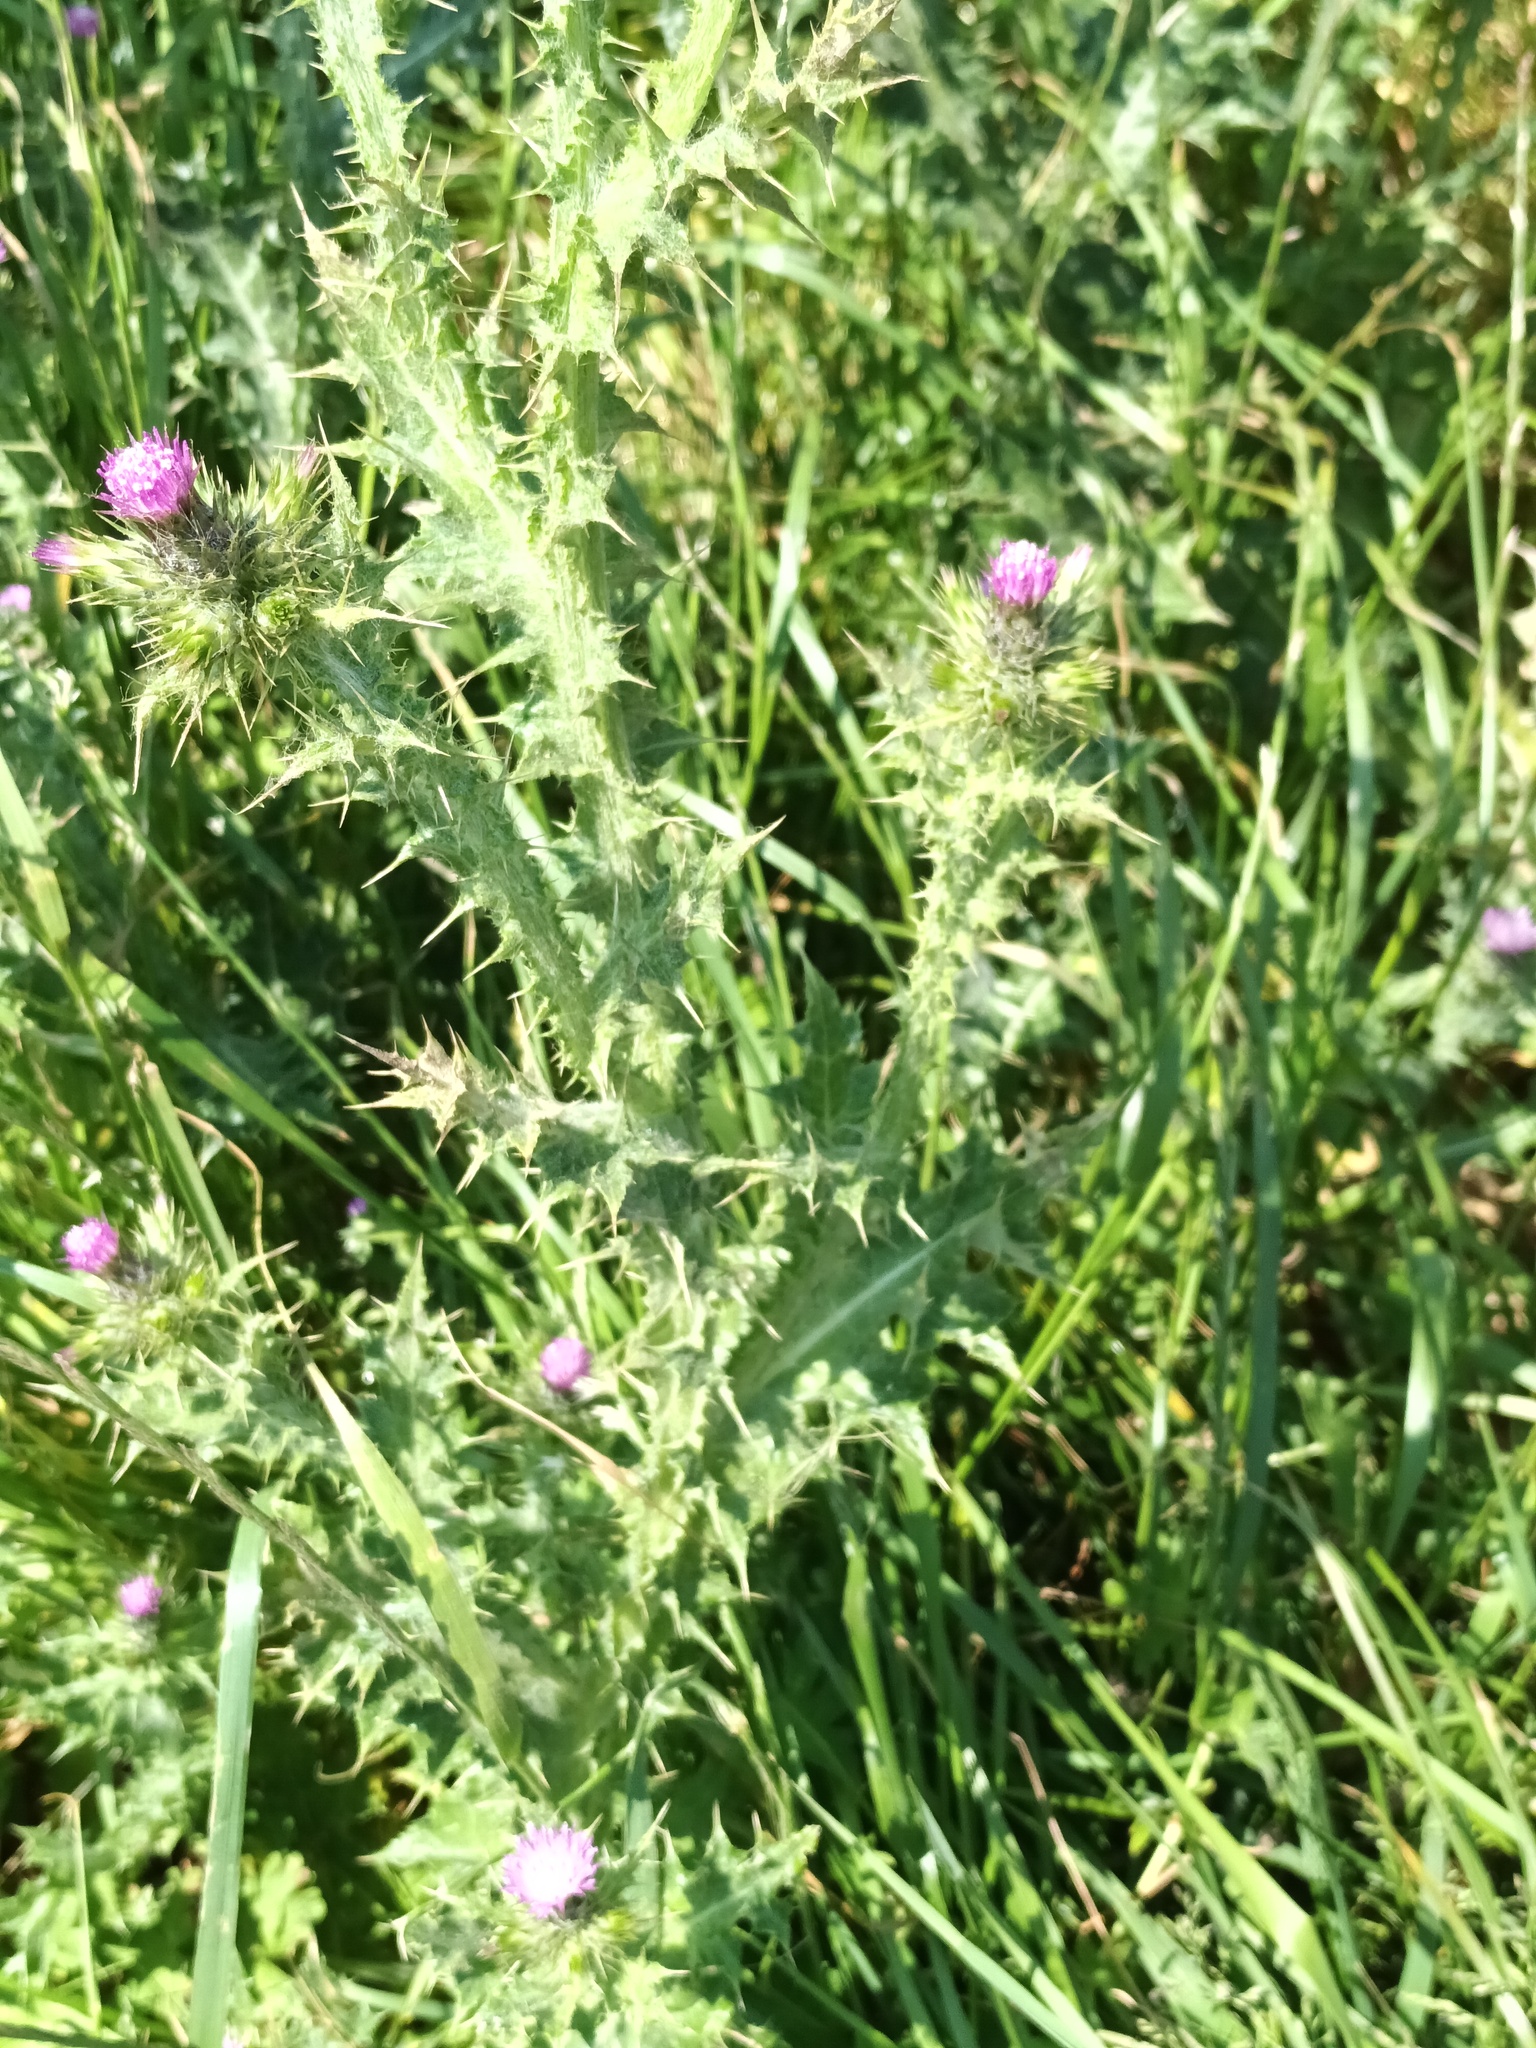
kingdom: Plantae
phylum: Tracheophyta
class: Magnoliopsida
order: Asterales
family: Asteraceae
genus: Carduus
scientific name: Carduus tenuiflorus
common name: Slender thistle
